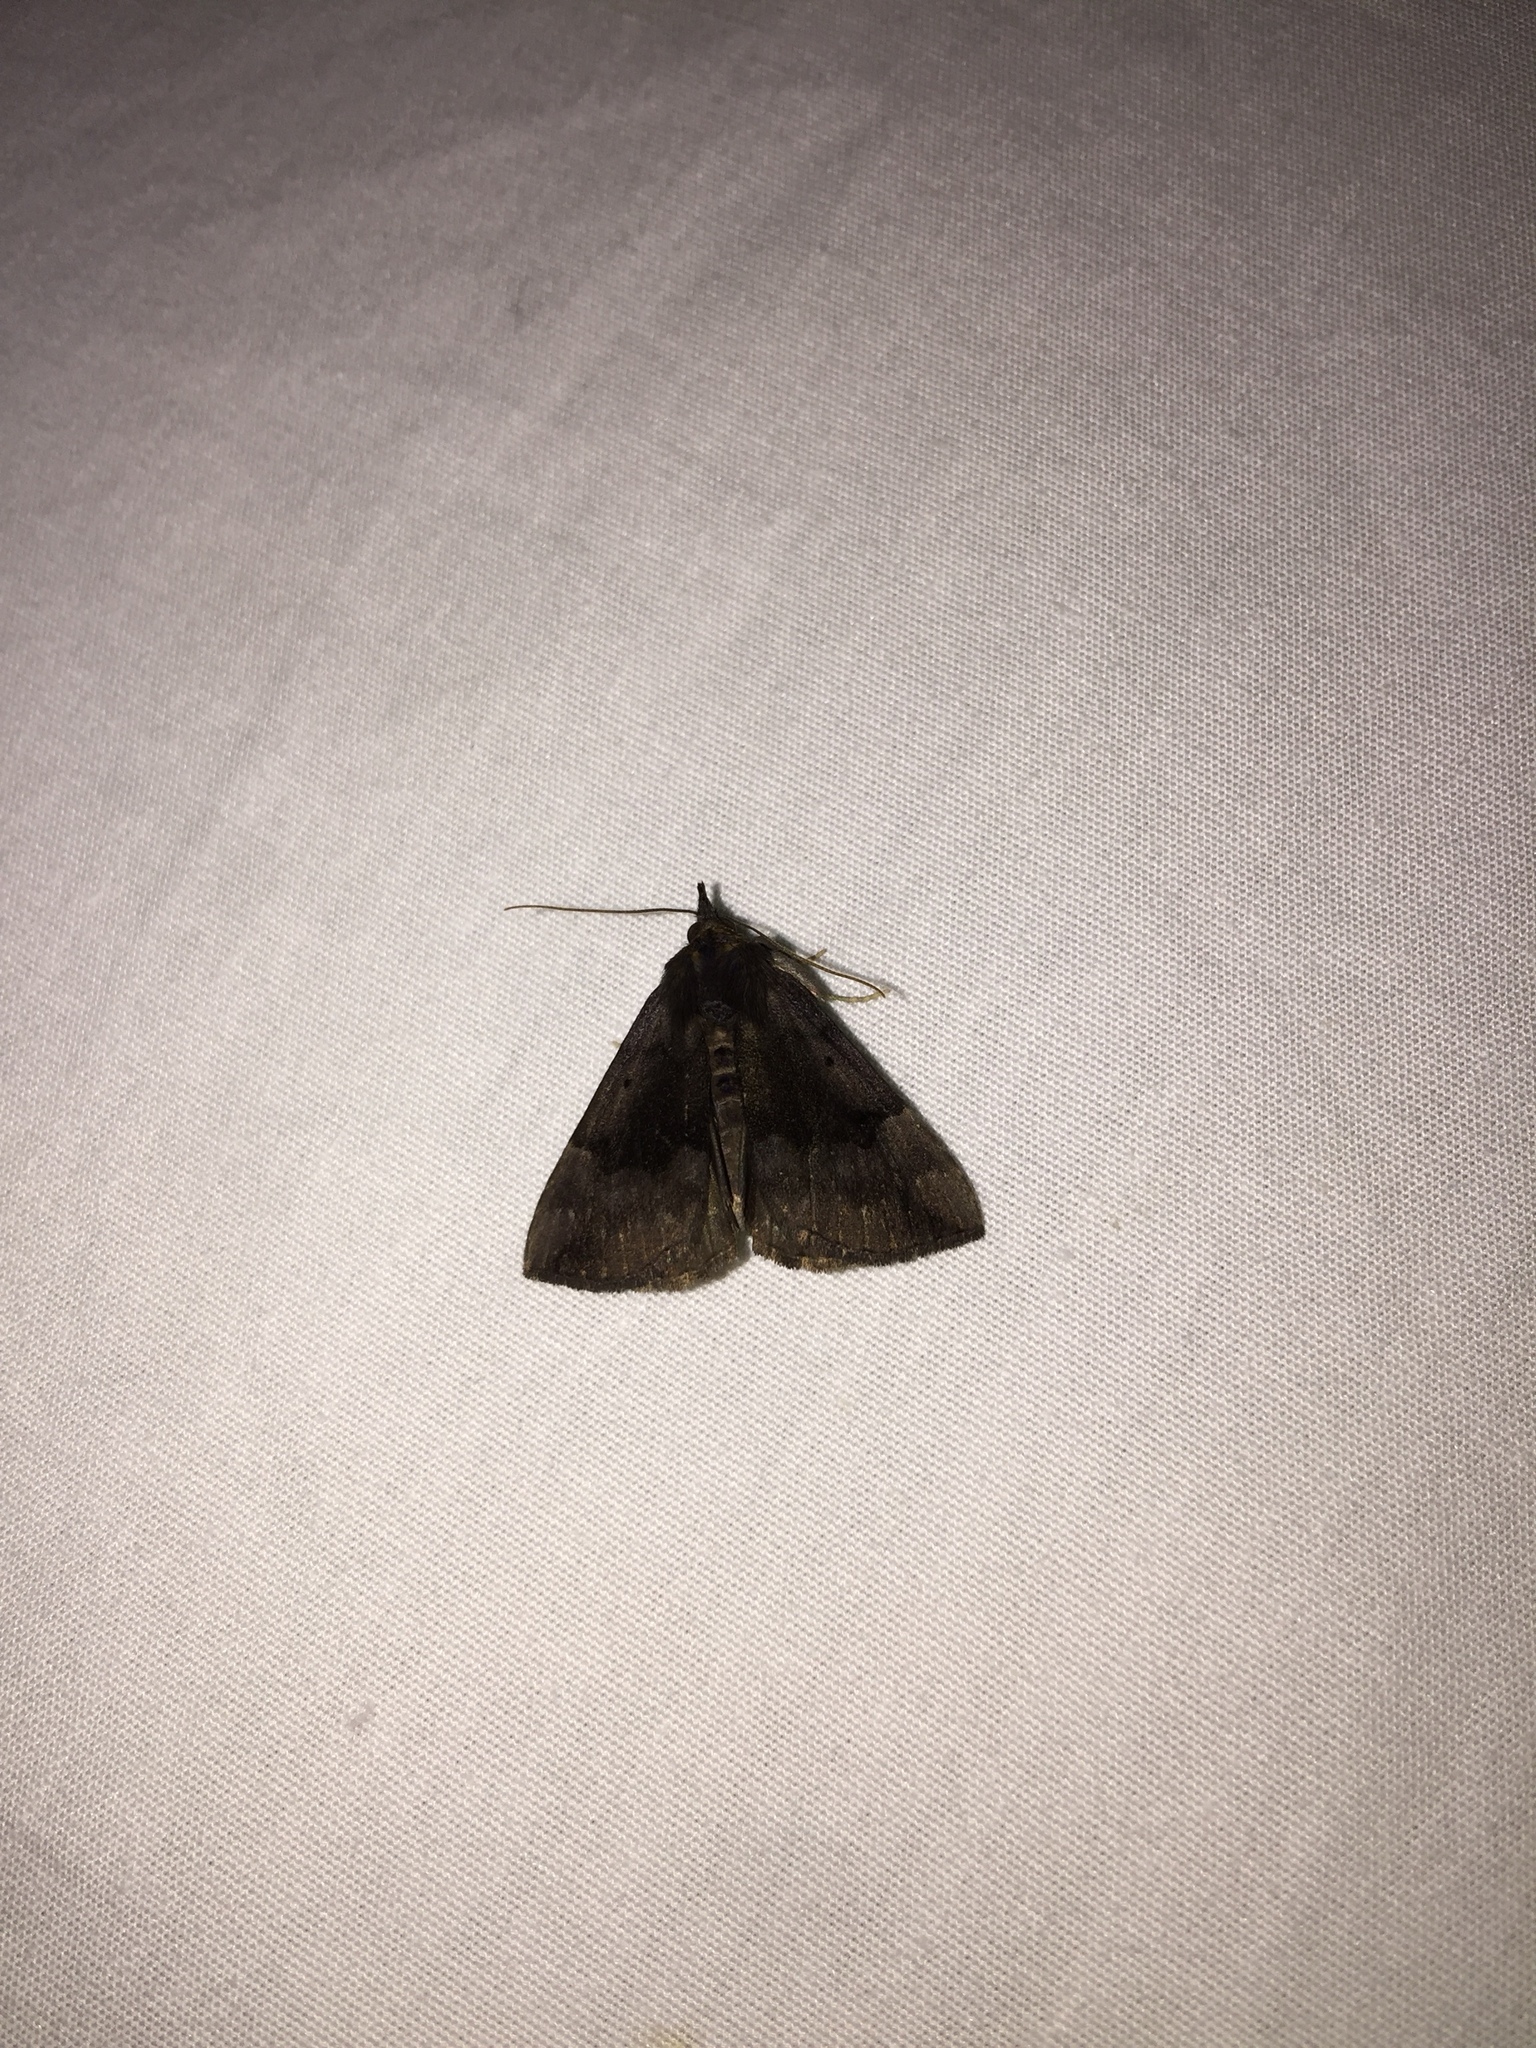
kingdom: Animalia
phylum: Arthropoda
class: Insecta
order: Lepidoptera
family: Erebidae
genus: Hypena
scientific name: Hypena madefactalis
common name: Gray-edged snout
